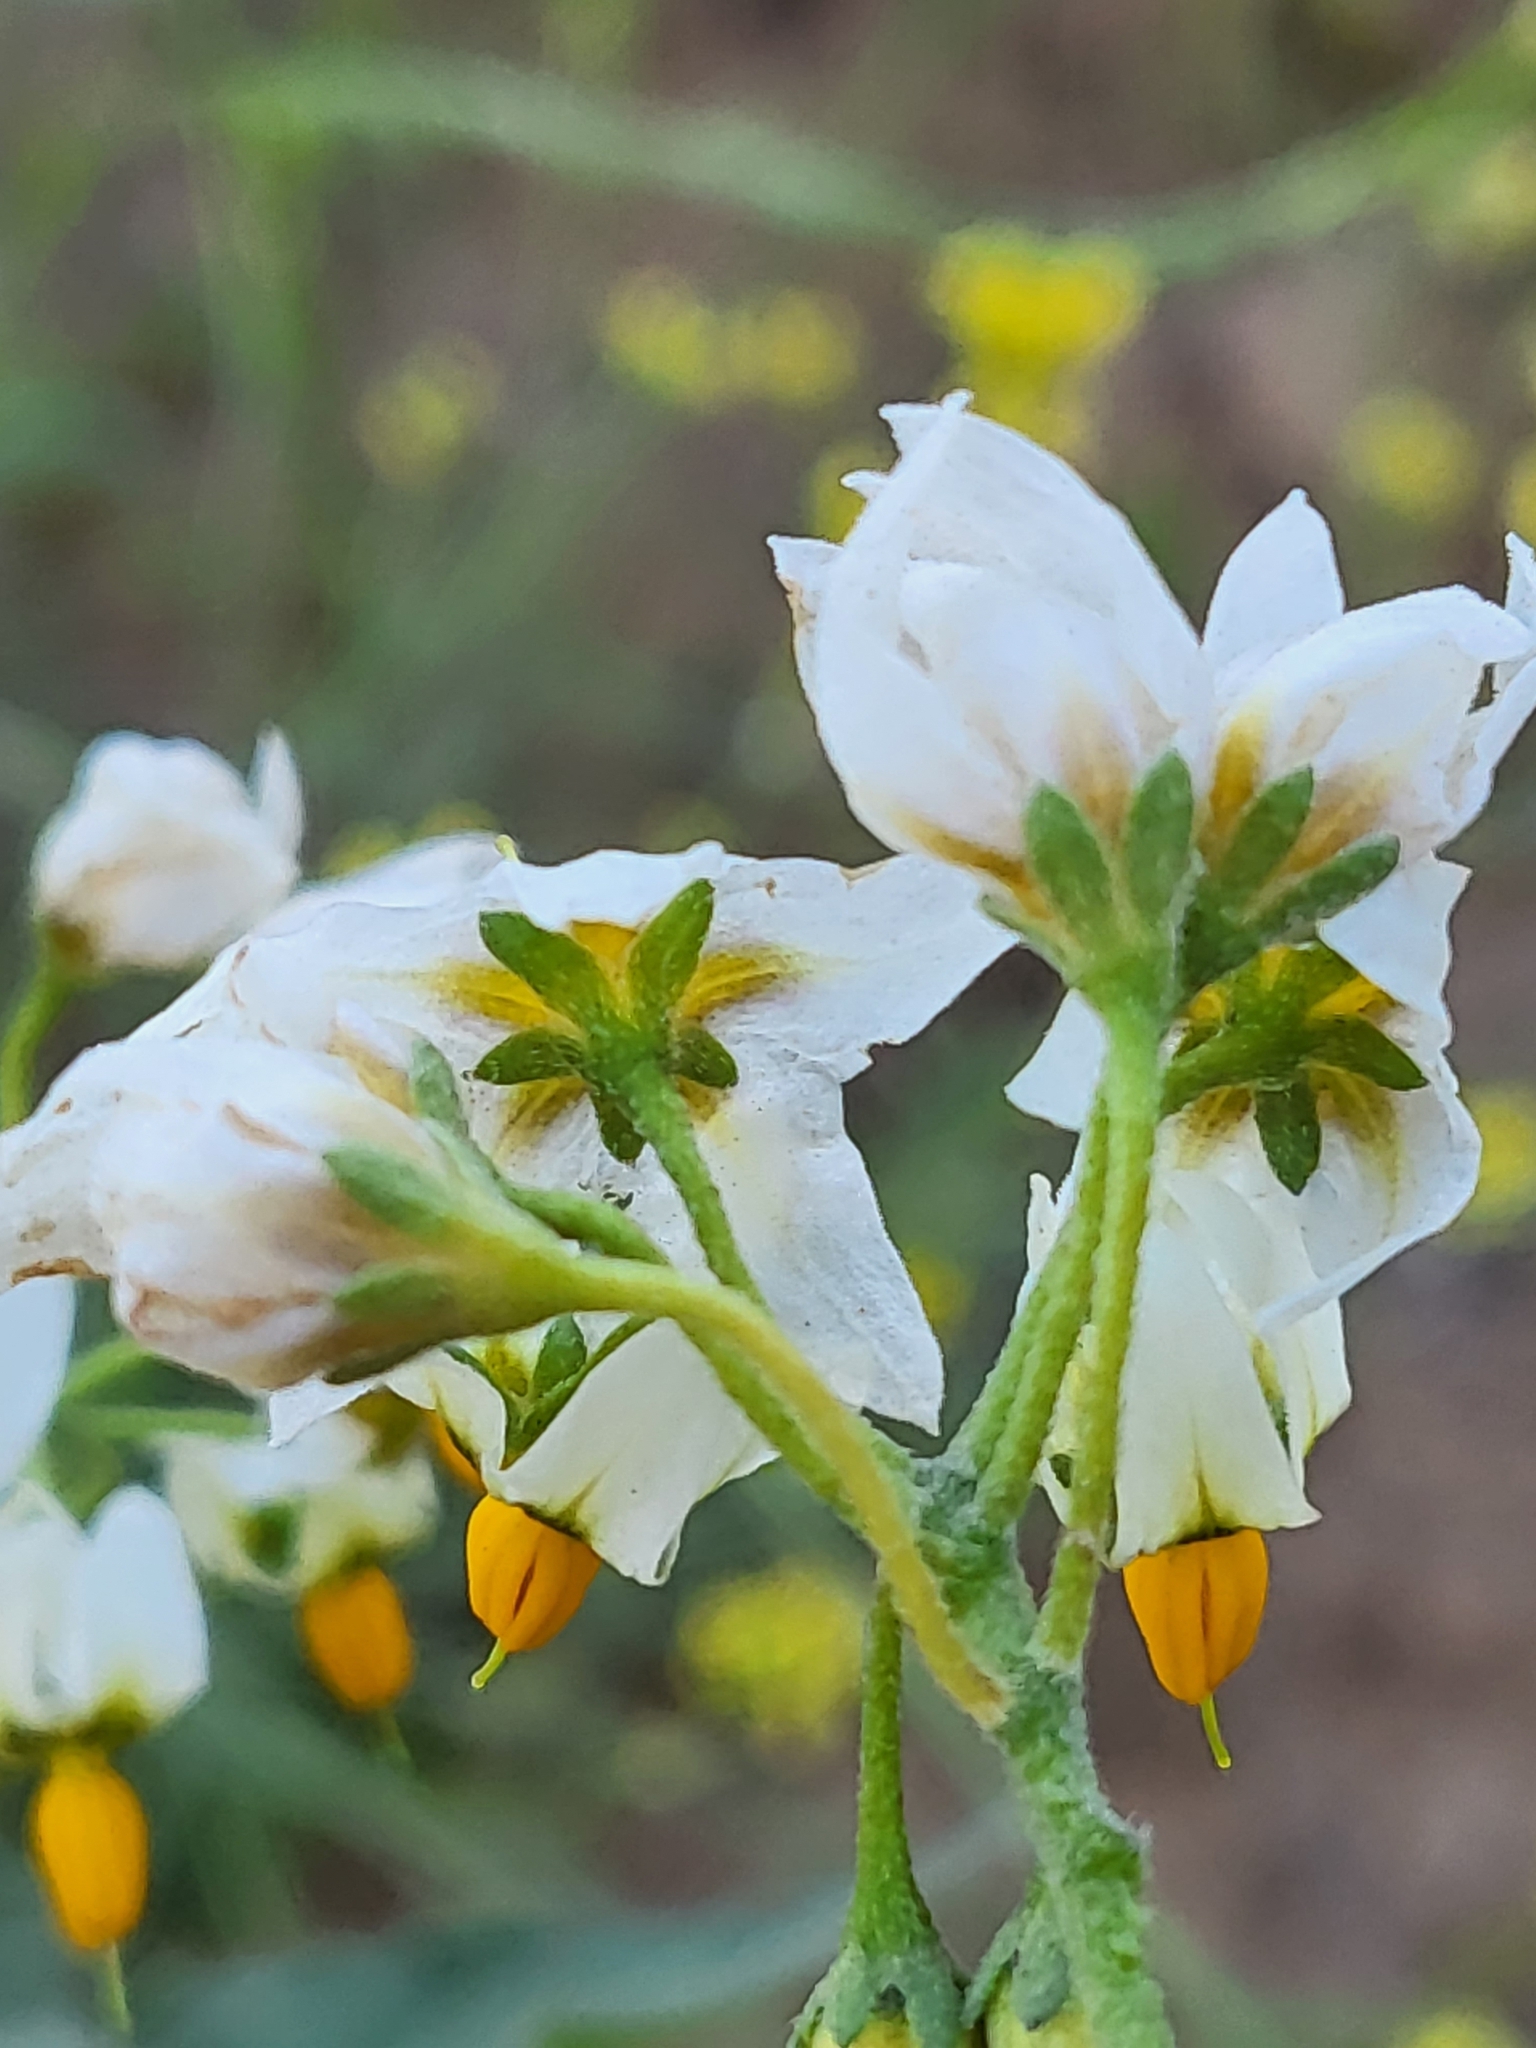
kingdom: Plantae
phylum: Tracheophyta
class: Magnoliopsida
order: Solanales
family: Solanaceae
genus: Solanum
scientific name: Solanum douglasii
